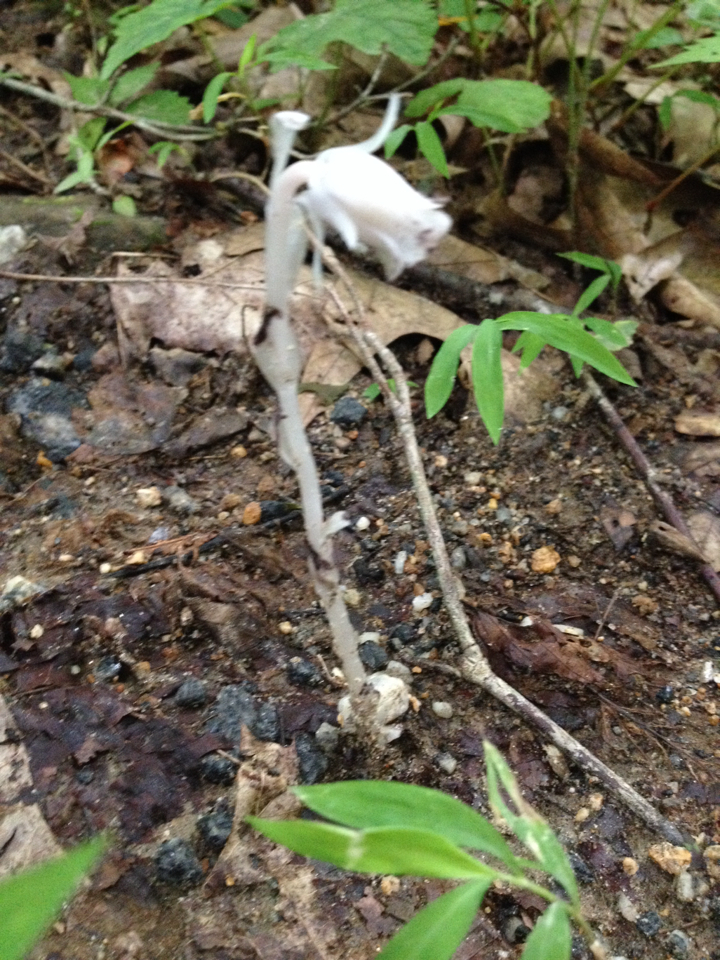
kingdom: Plantae
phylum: Tracheophyta
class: Magnoliopsida
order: Ericales
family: Ericaceae
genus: Monotropa
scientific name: Monotropa uniflora
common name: Convulsion root
